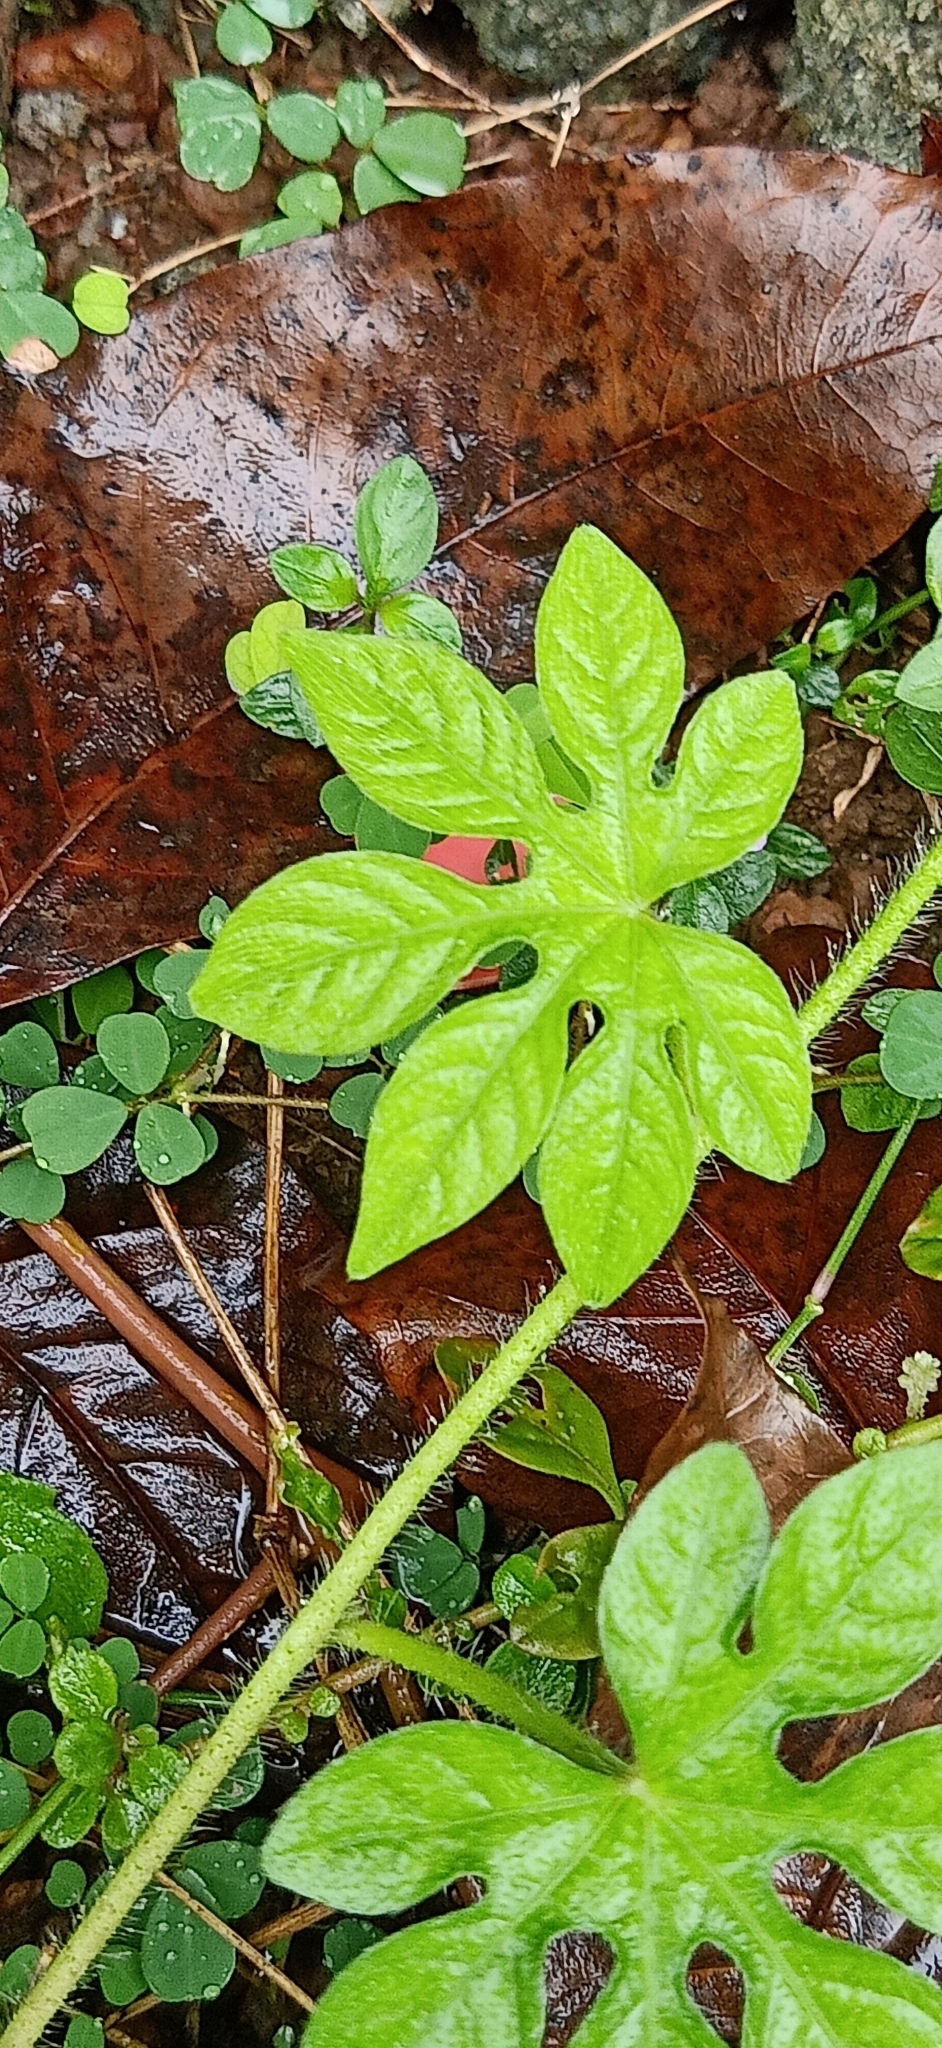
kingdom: Plantae
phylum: Tracheophyta
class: Magnoliopsida
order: Solanales
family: Convolvulaceae
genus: Ipomoea
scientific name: Ipomoea pes-tigridis
